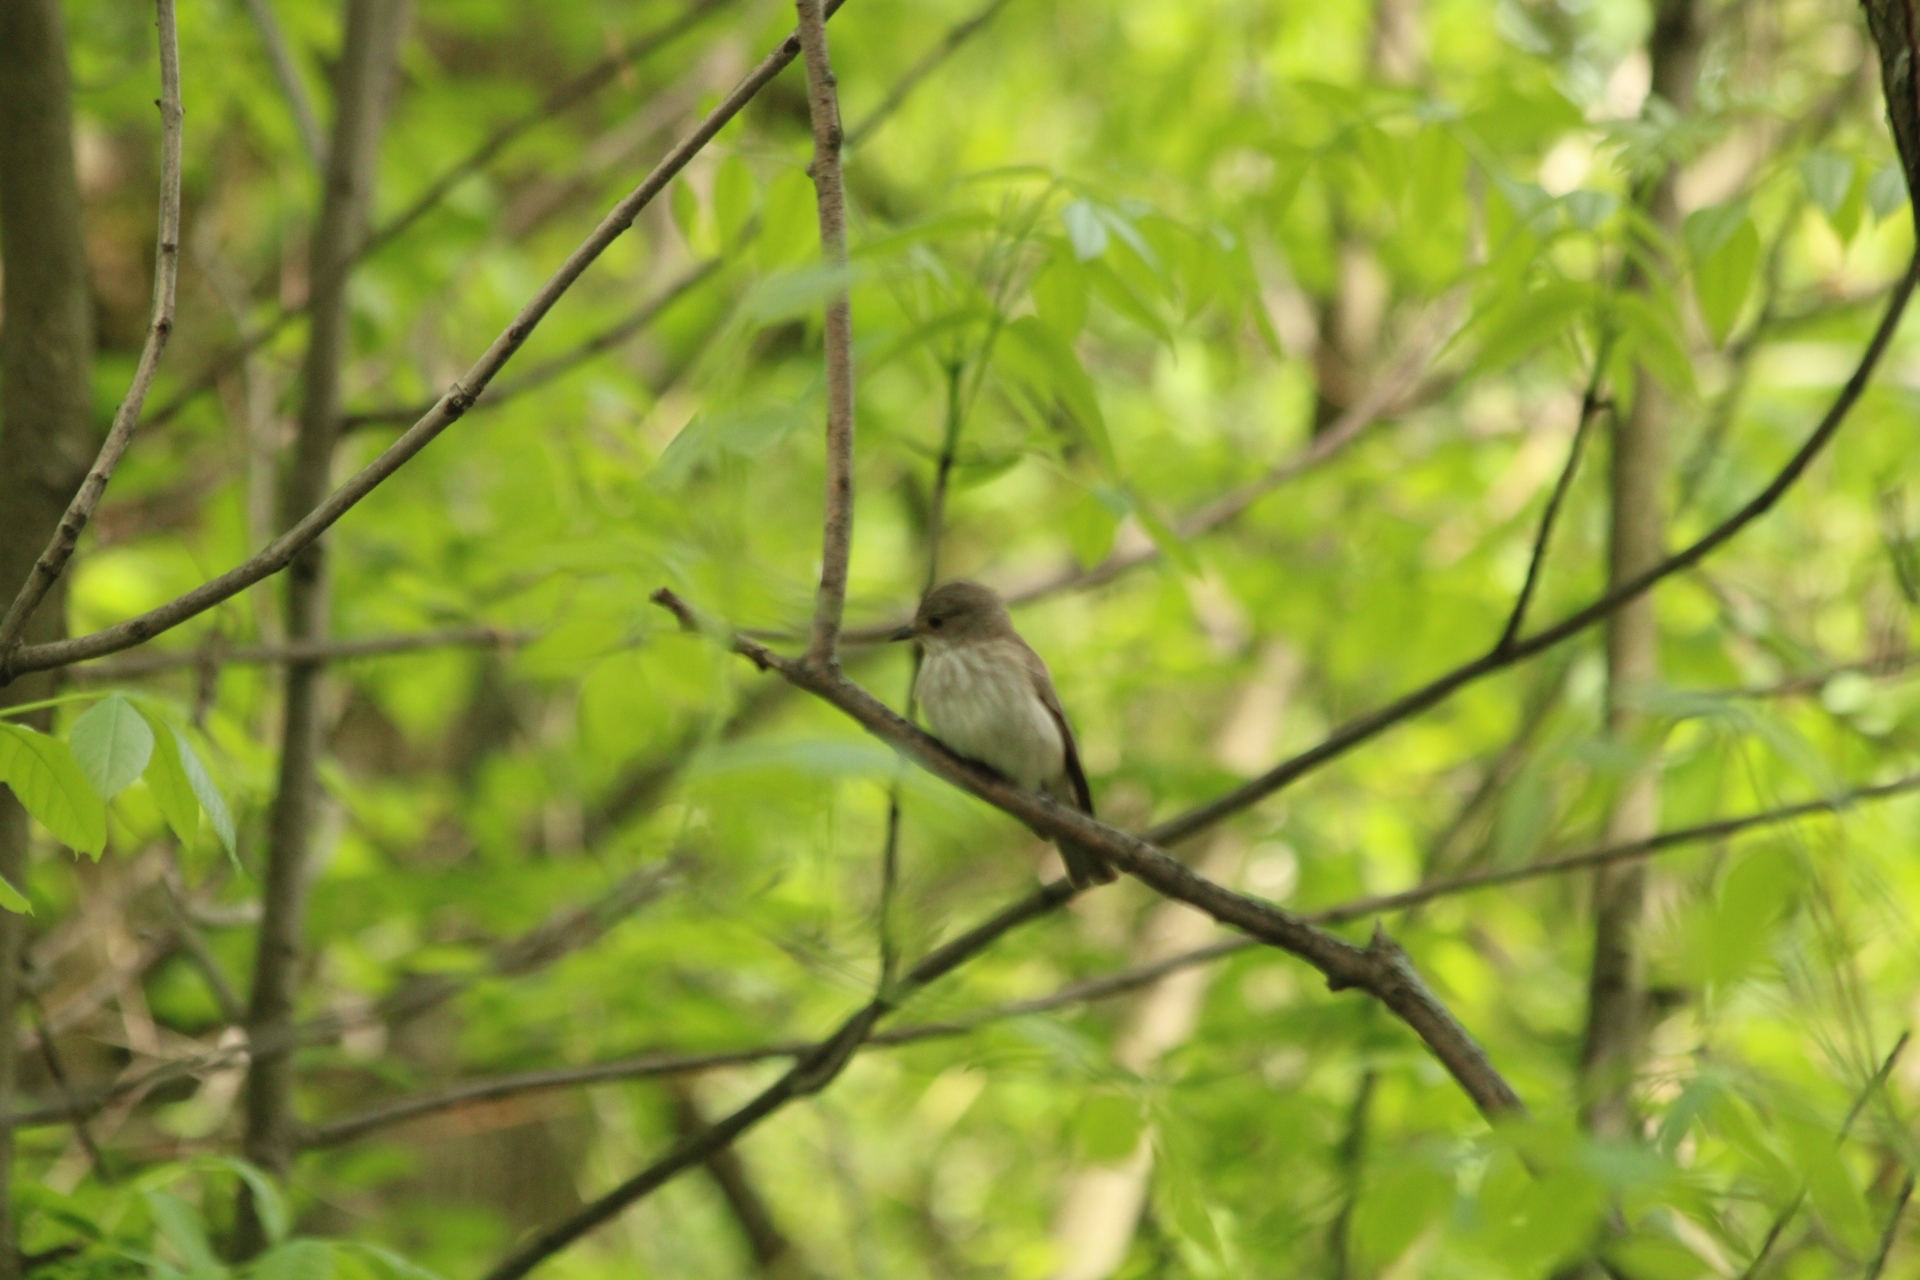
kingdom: Animalia
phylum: Chordata
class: Aves
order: Passeriformes
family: Muscicapidae
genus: Muscicapa
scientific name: Muscicapa striata
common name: Spotted flycatcher
